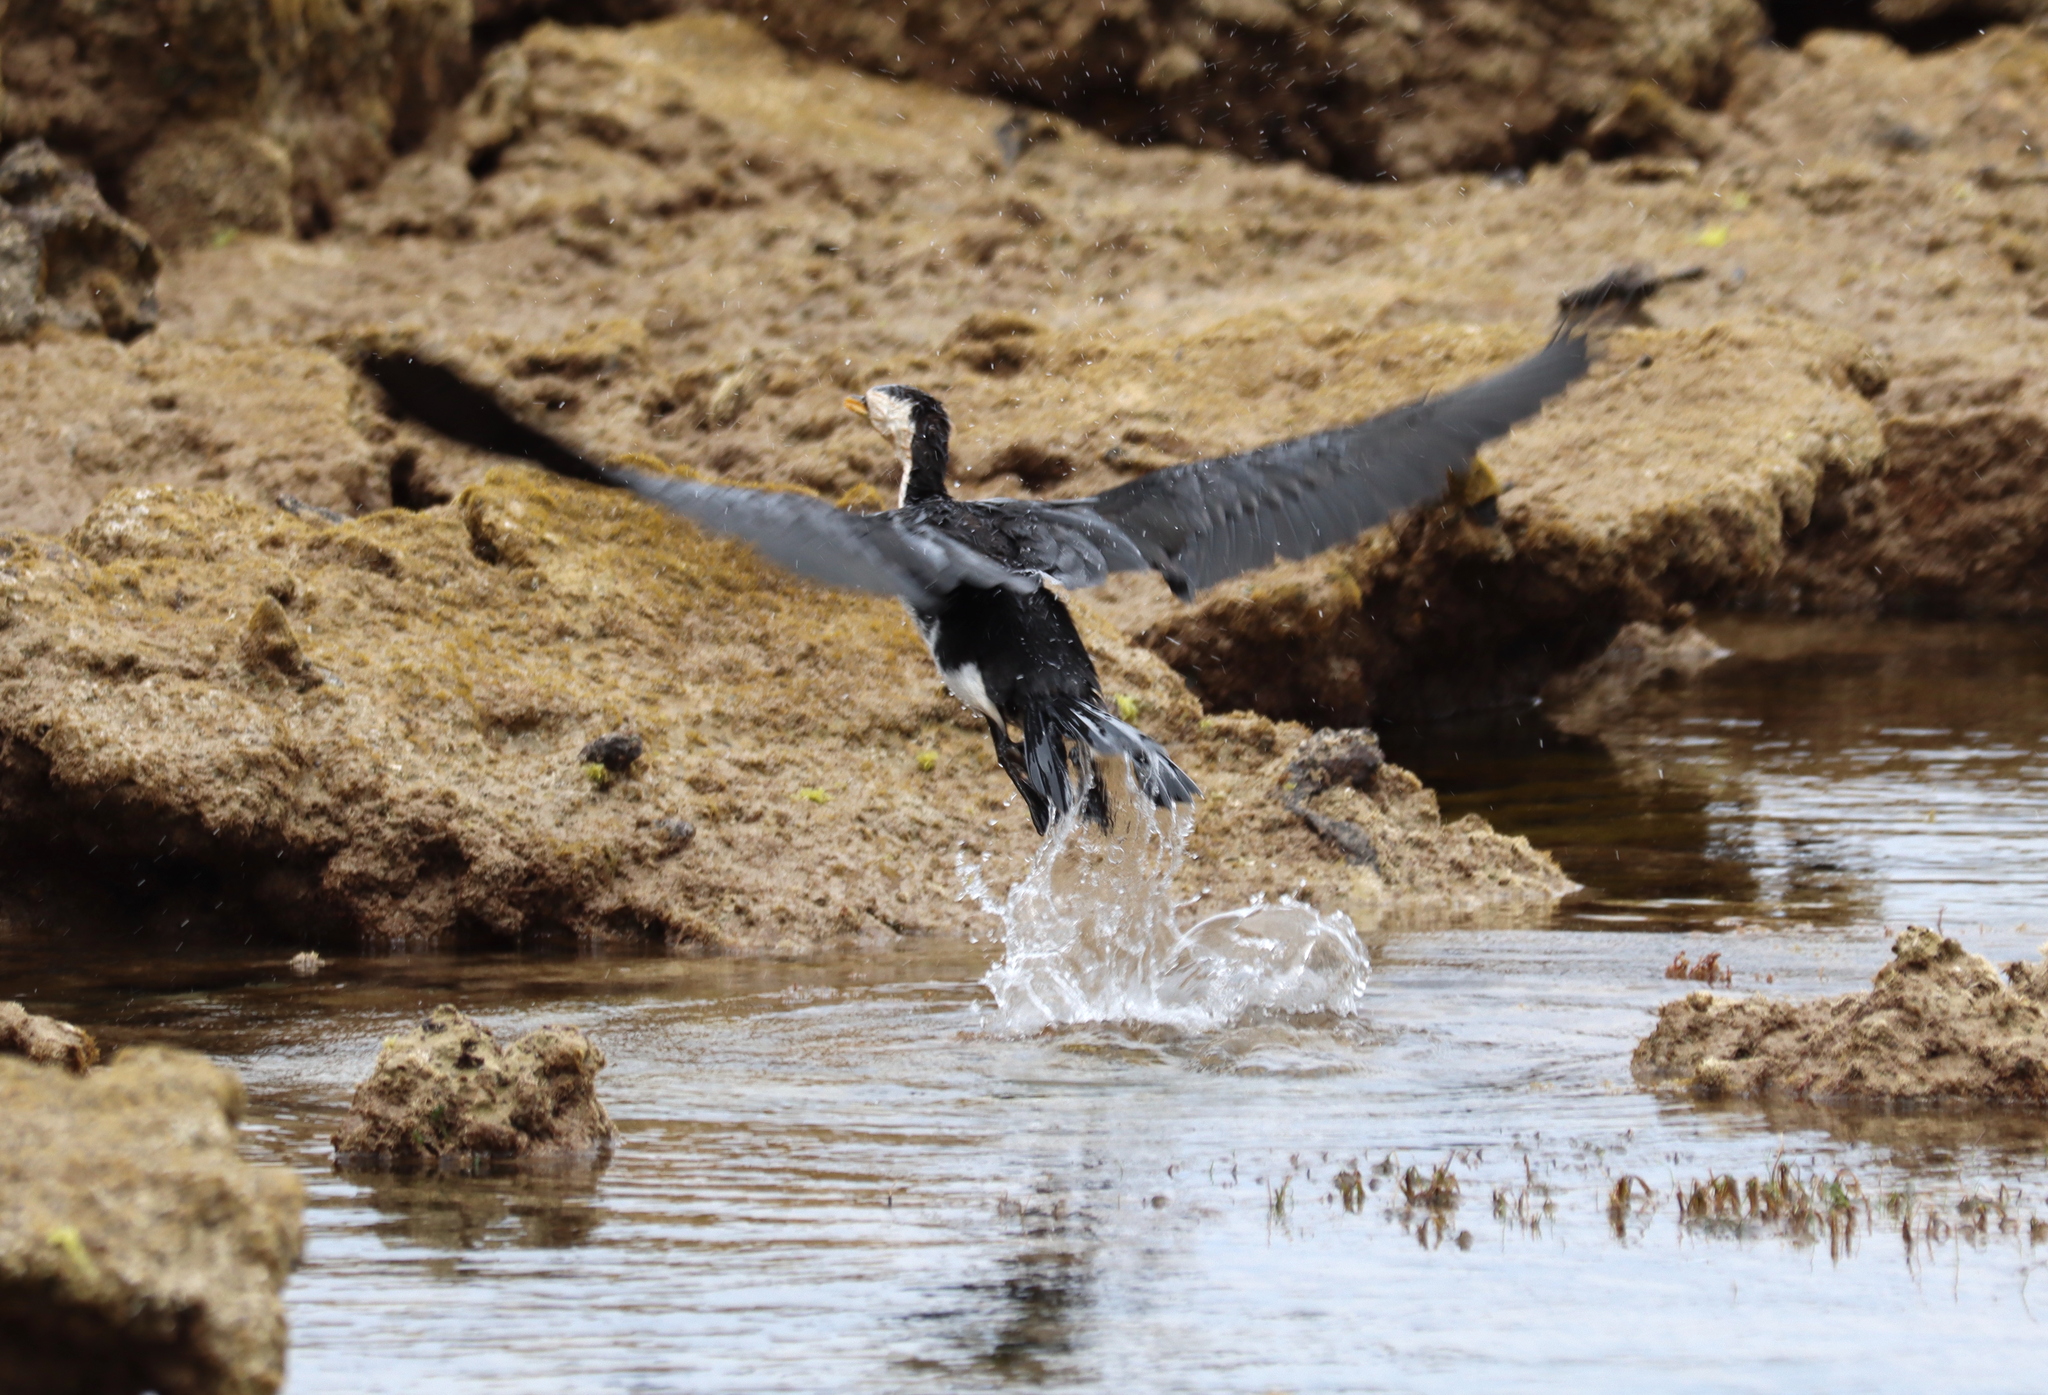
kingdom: Animalia
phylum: Chordata
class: Aves
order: Suliformes
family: Phalacrocoracidae
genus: Microcarbo
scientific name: Microcarbo melanoleucos
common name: Little pied cormorant
